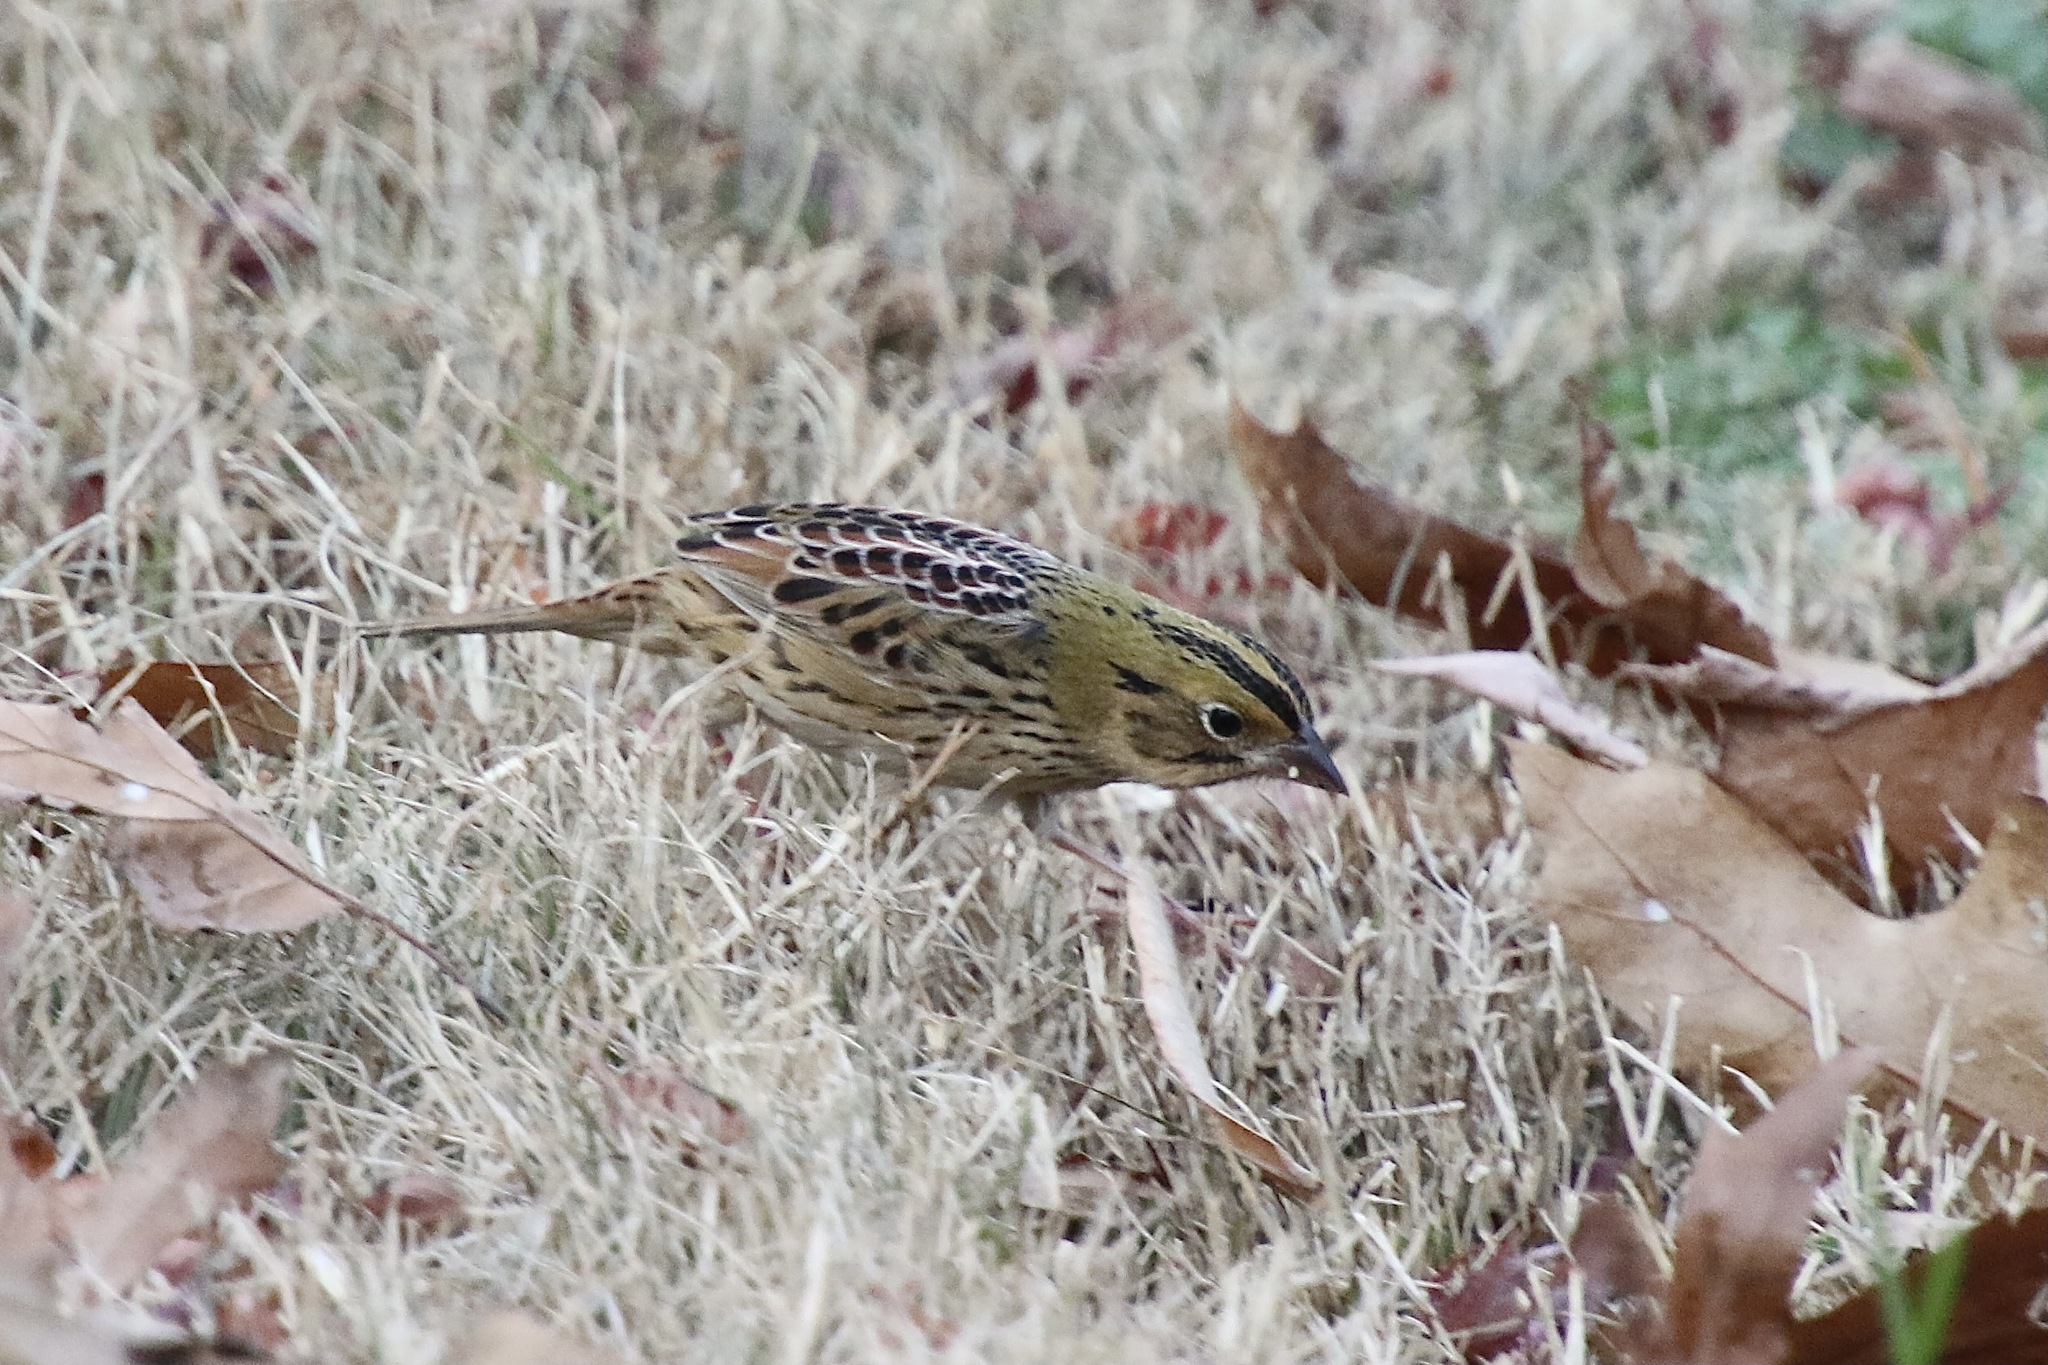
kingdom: Animalia
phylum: Chordata
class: Aves
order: Passeriformes
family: Passerellidae
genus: Centronyx
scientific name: Centronyx henslowii
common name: Henslow's sparrow
